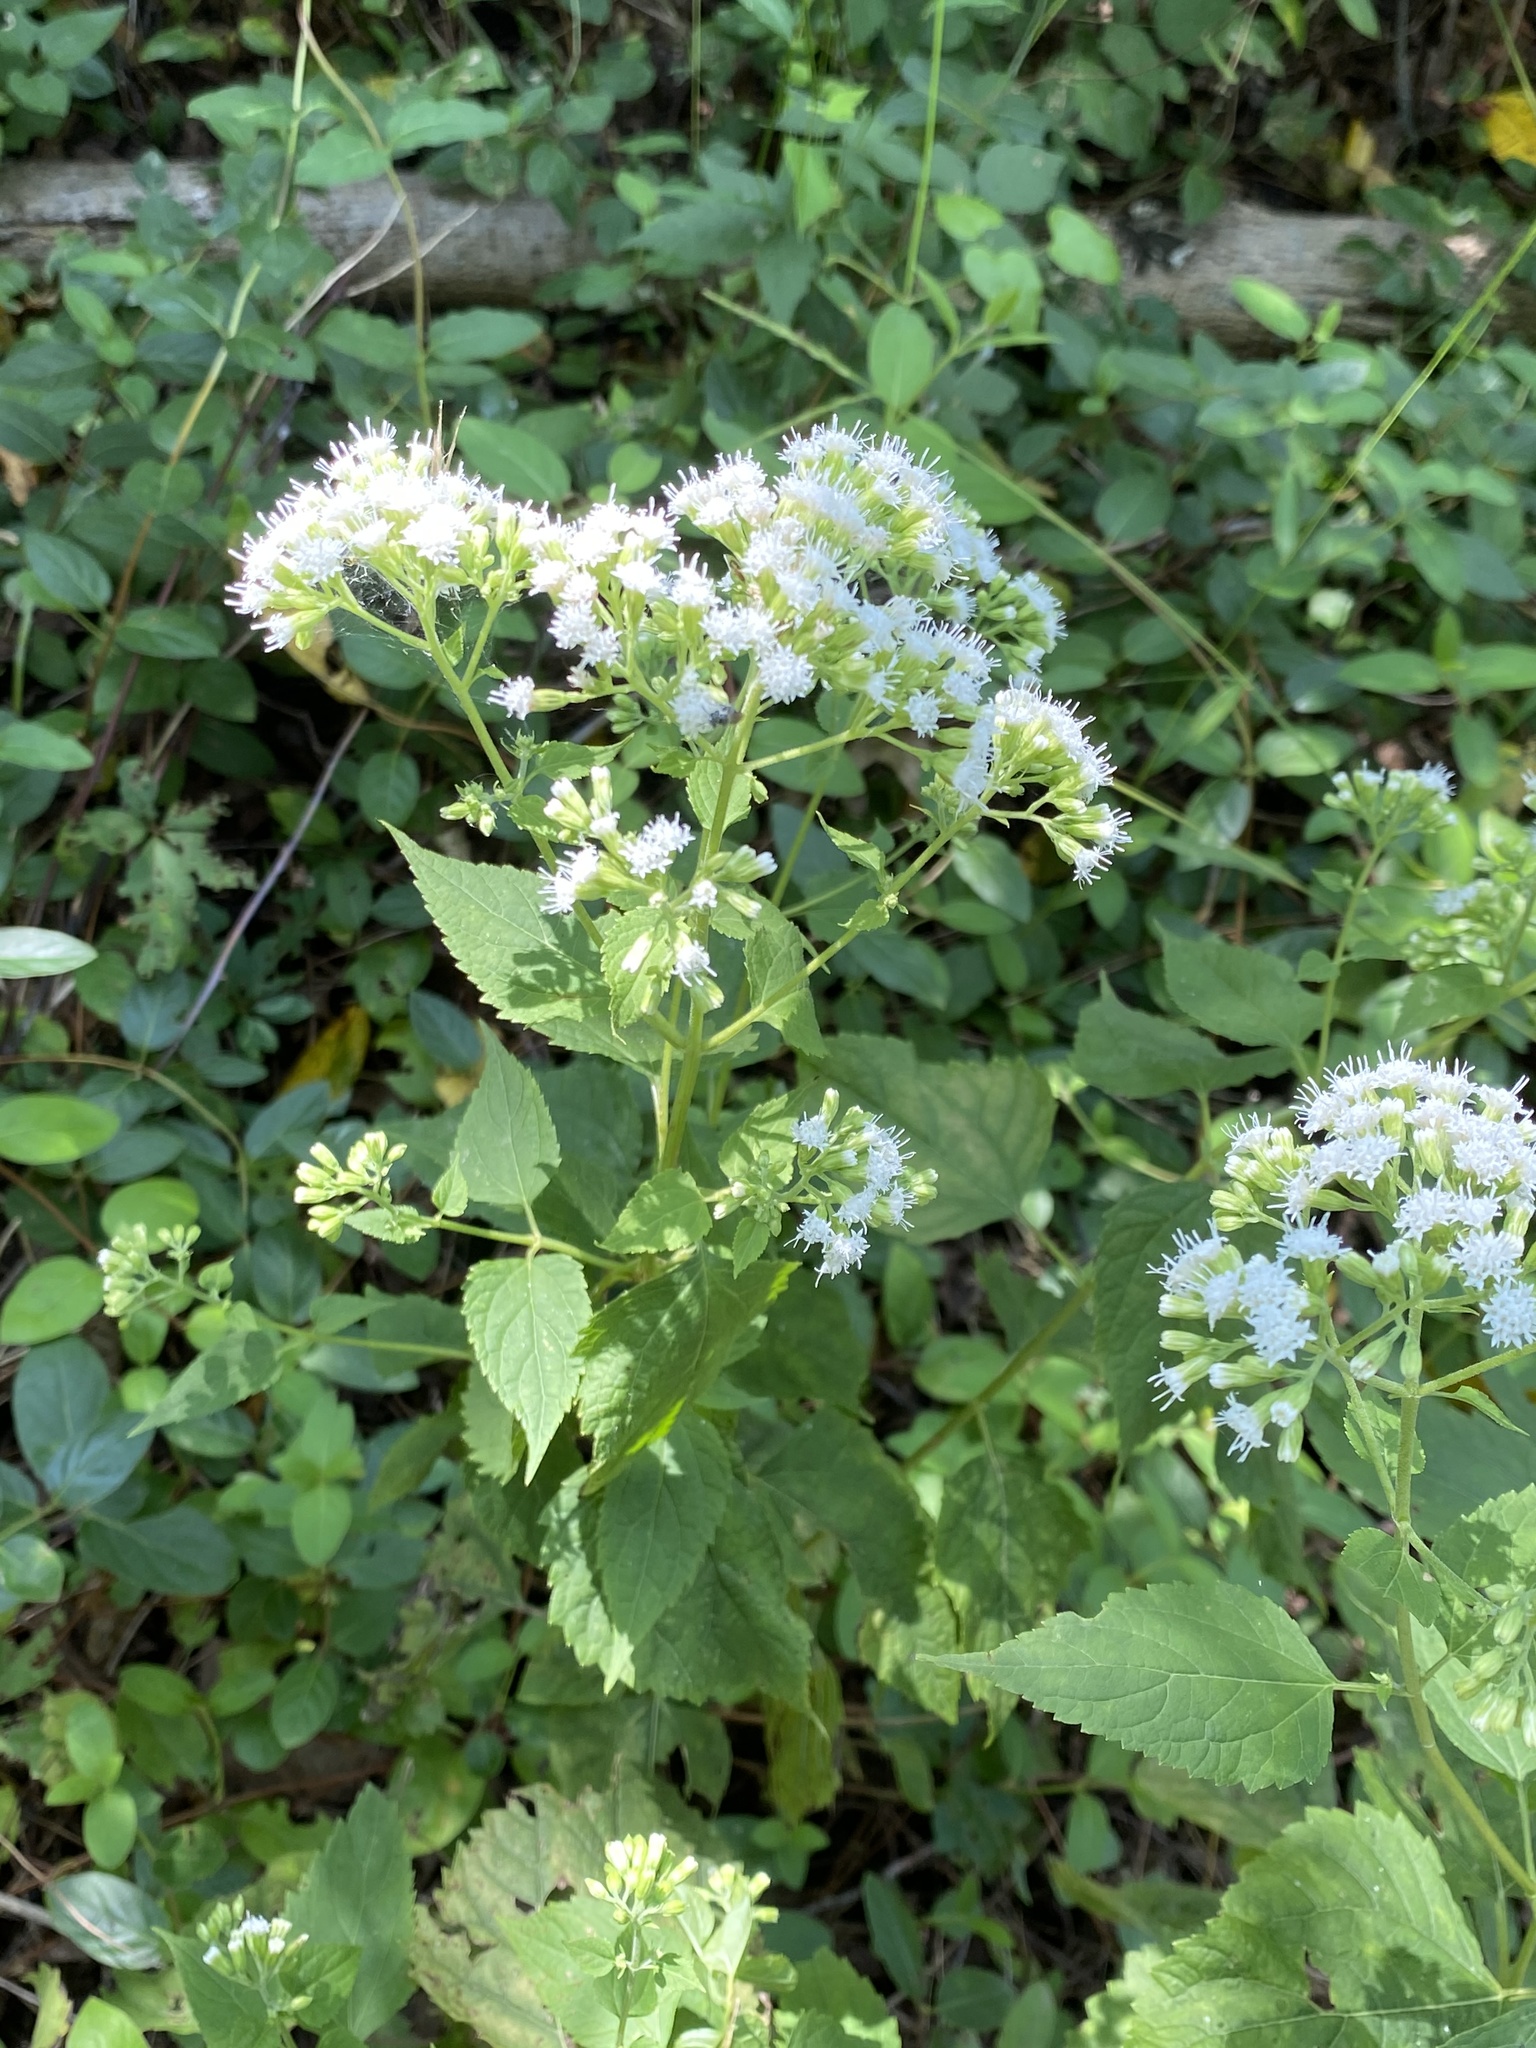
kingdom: Plantae
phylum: Tracheophyta
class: Magnoliopsida
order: Asterales
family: Asteraceae
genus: Ageratina
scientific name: Ageratina altissima
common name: White snakeroot
